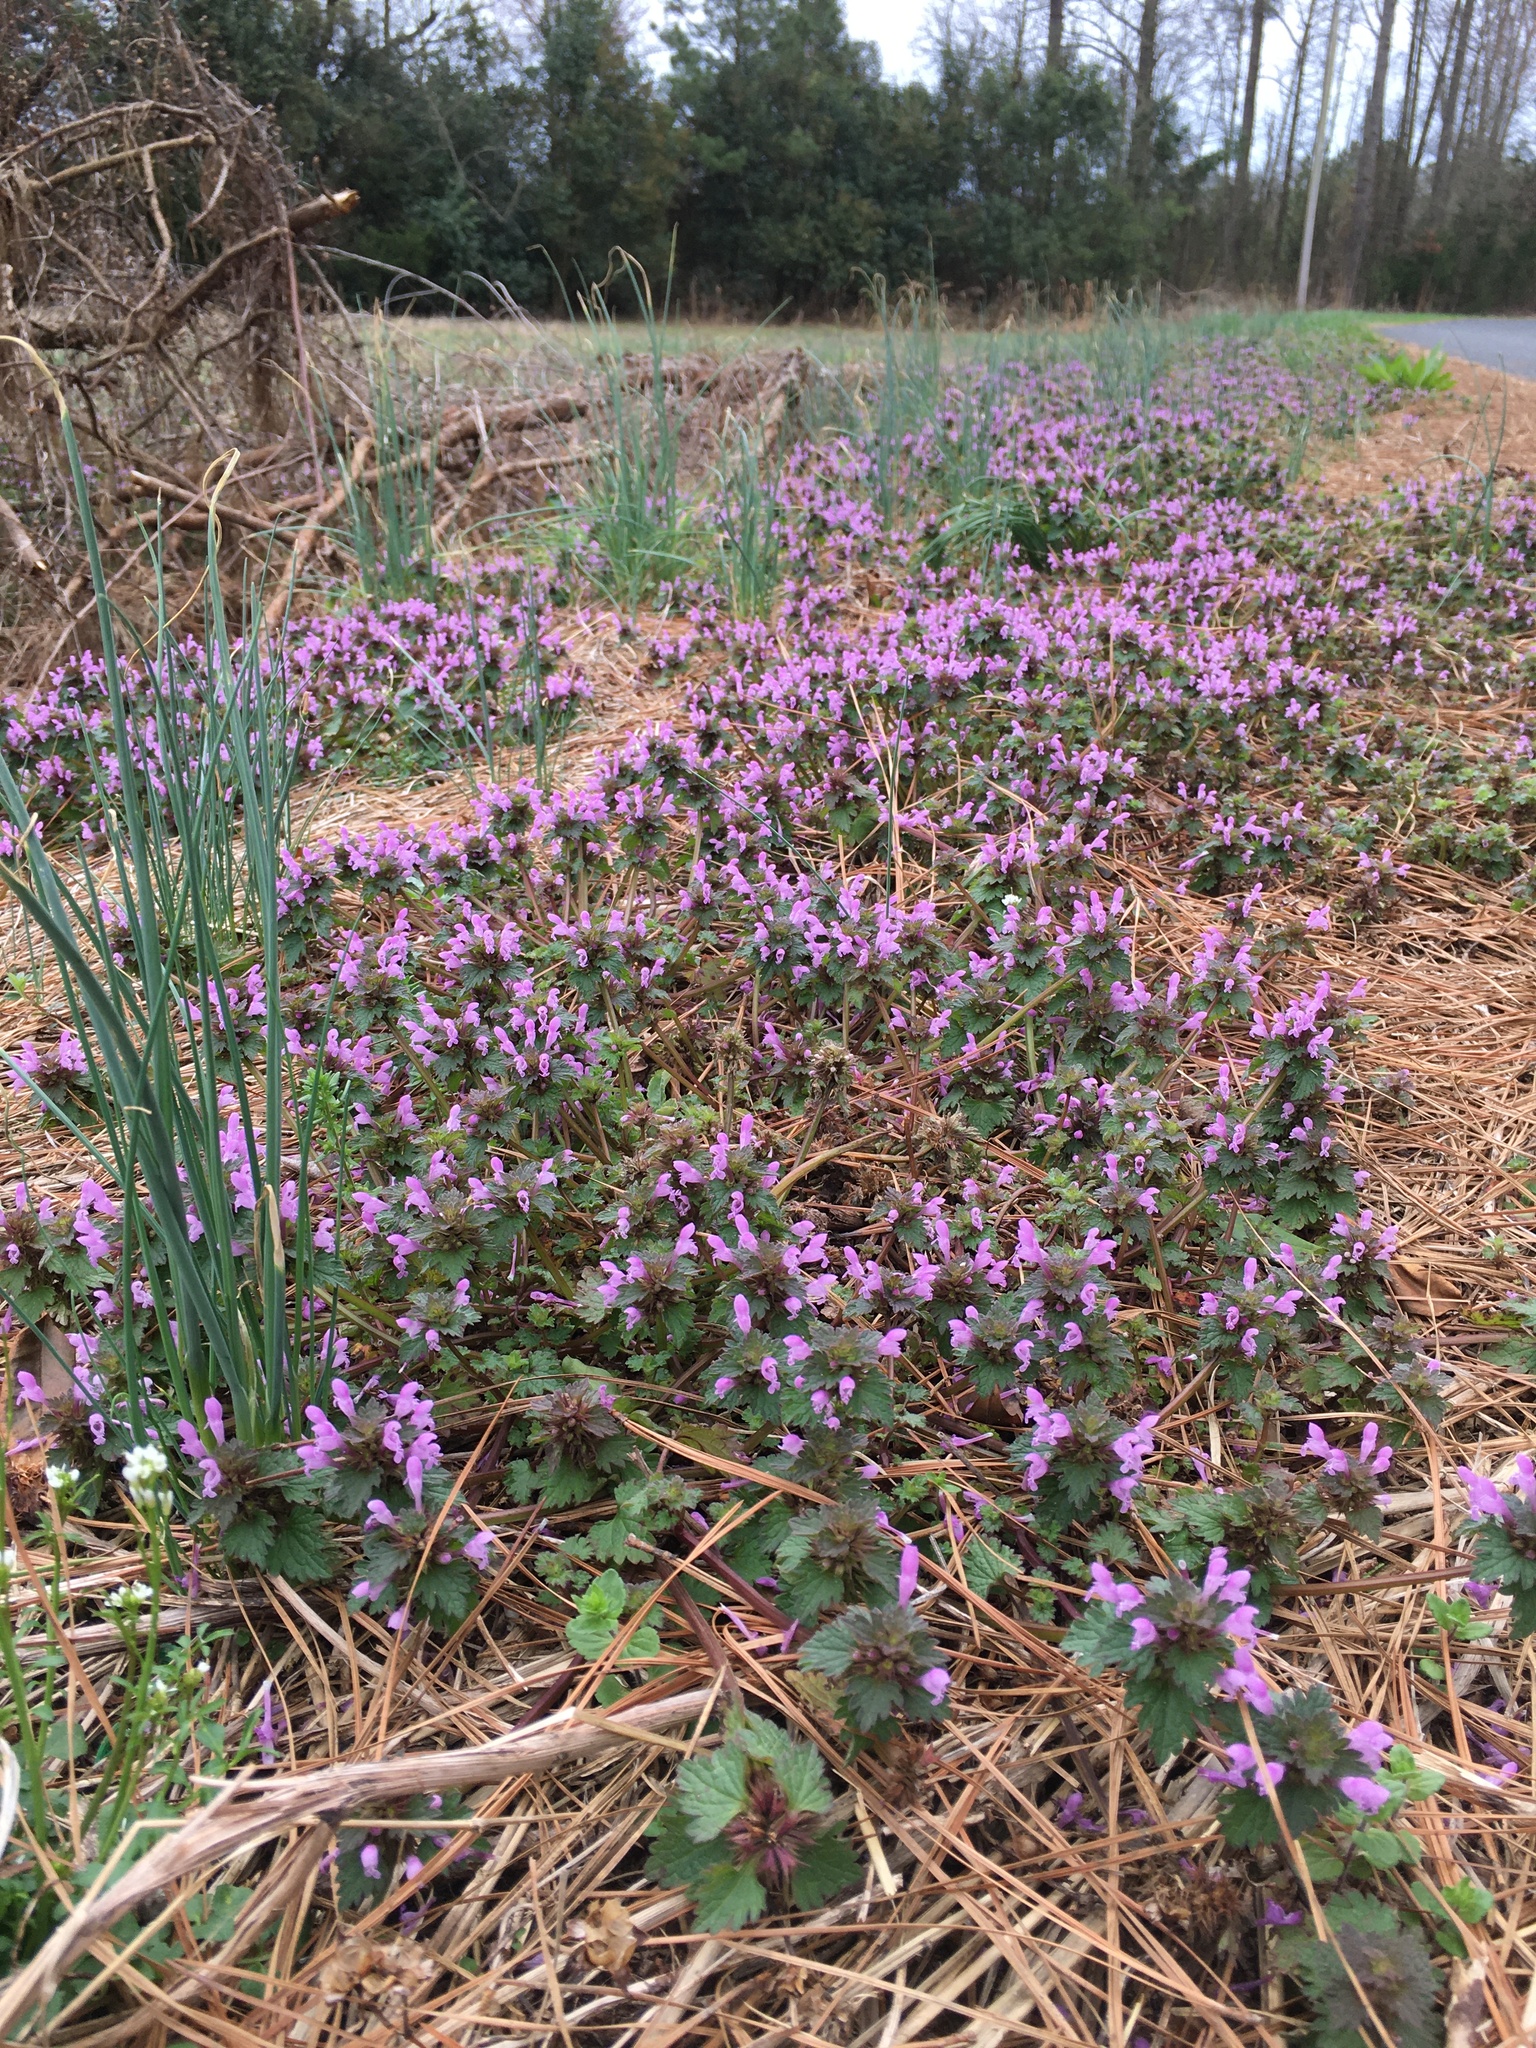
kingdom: Plantae
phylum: Tracheophyta
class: Magnoliopsida
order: Lamiales
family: Lamiaceae
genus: Lamium
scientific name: Lamium amplexicaule
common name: Henbit dead-nettle
